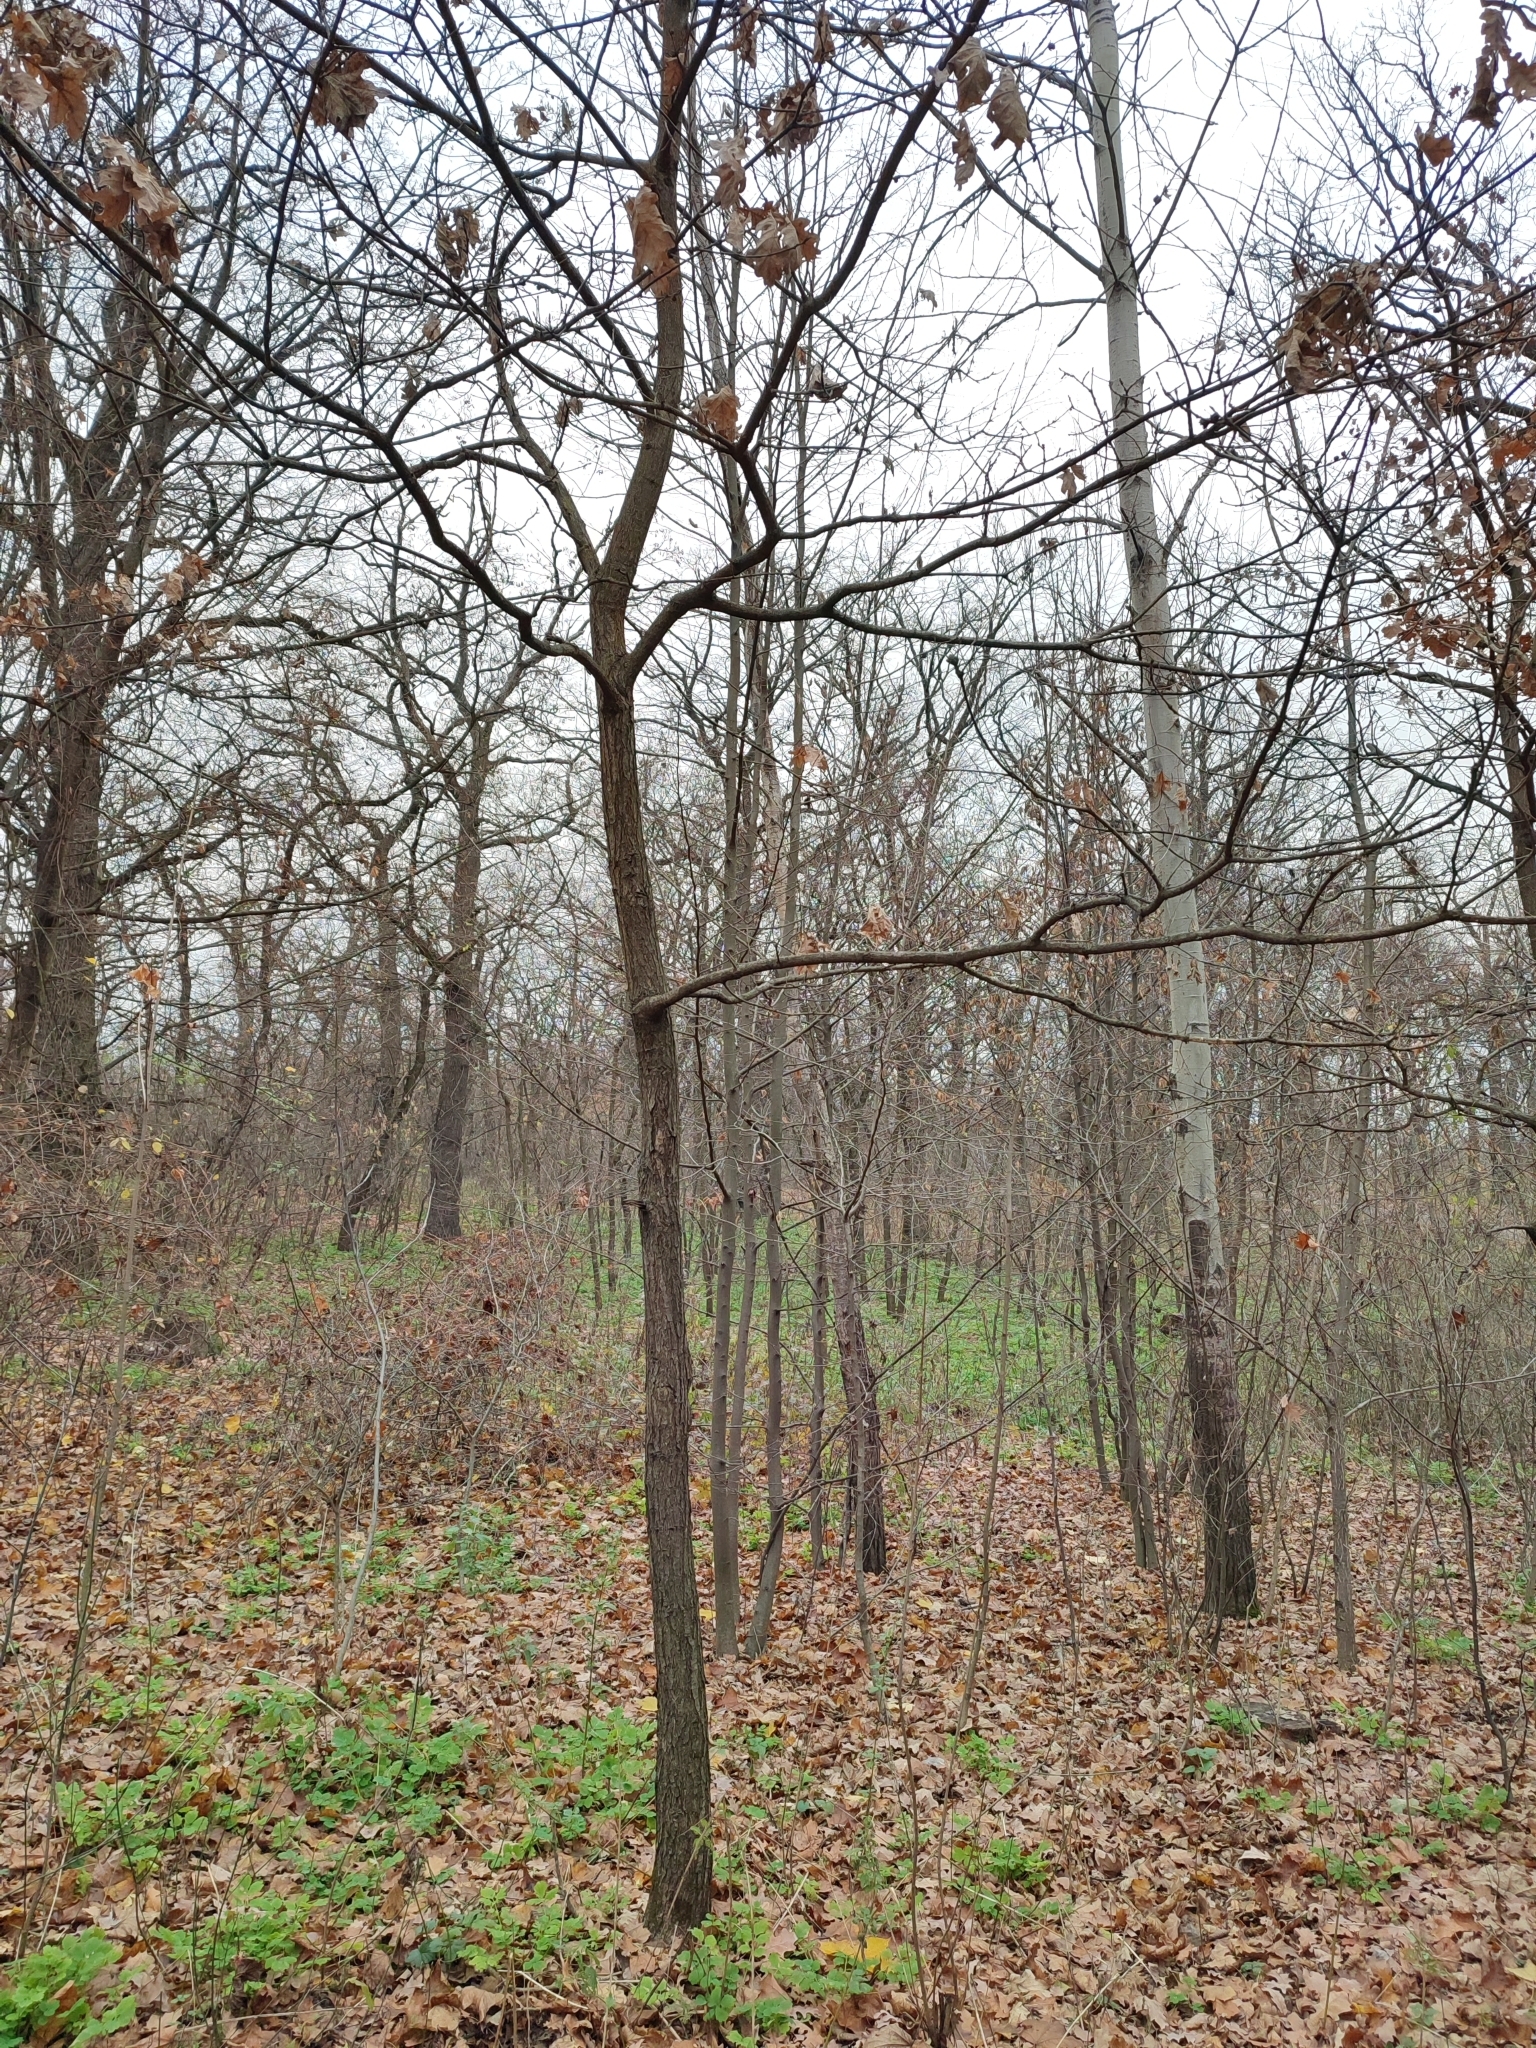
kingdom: Plantae
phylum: Tracheophyta
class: Magnoliopsida
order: Fagales
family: Fagaceae
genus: Quercus
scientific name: Quercus robur
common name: Pedunculate oak
